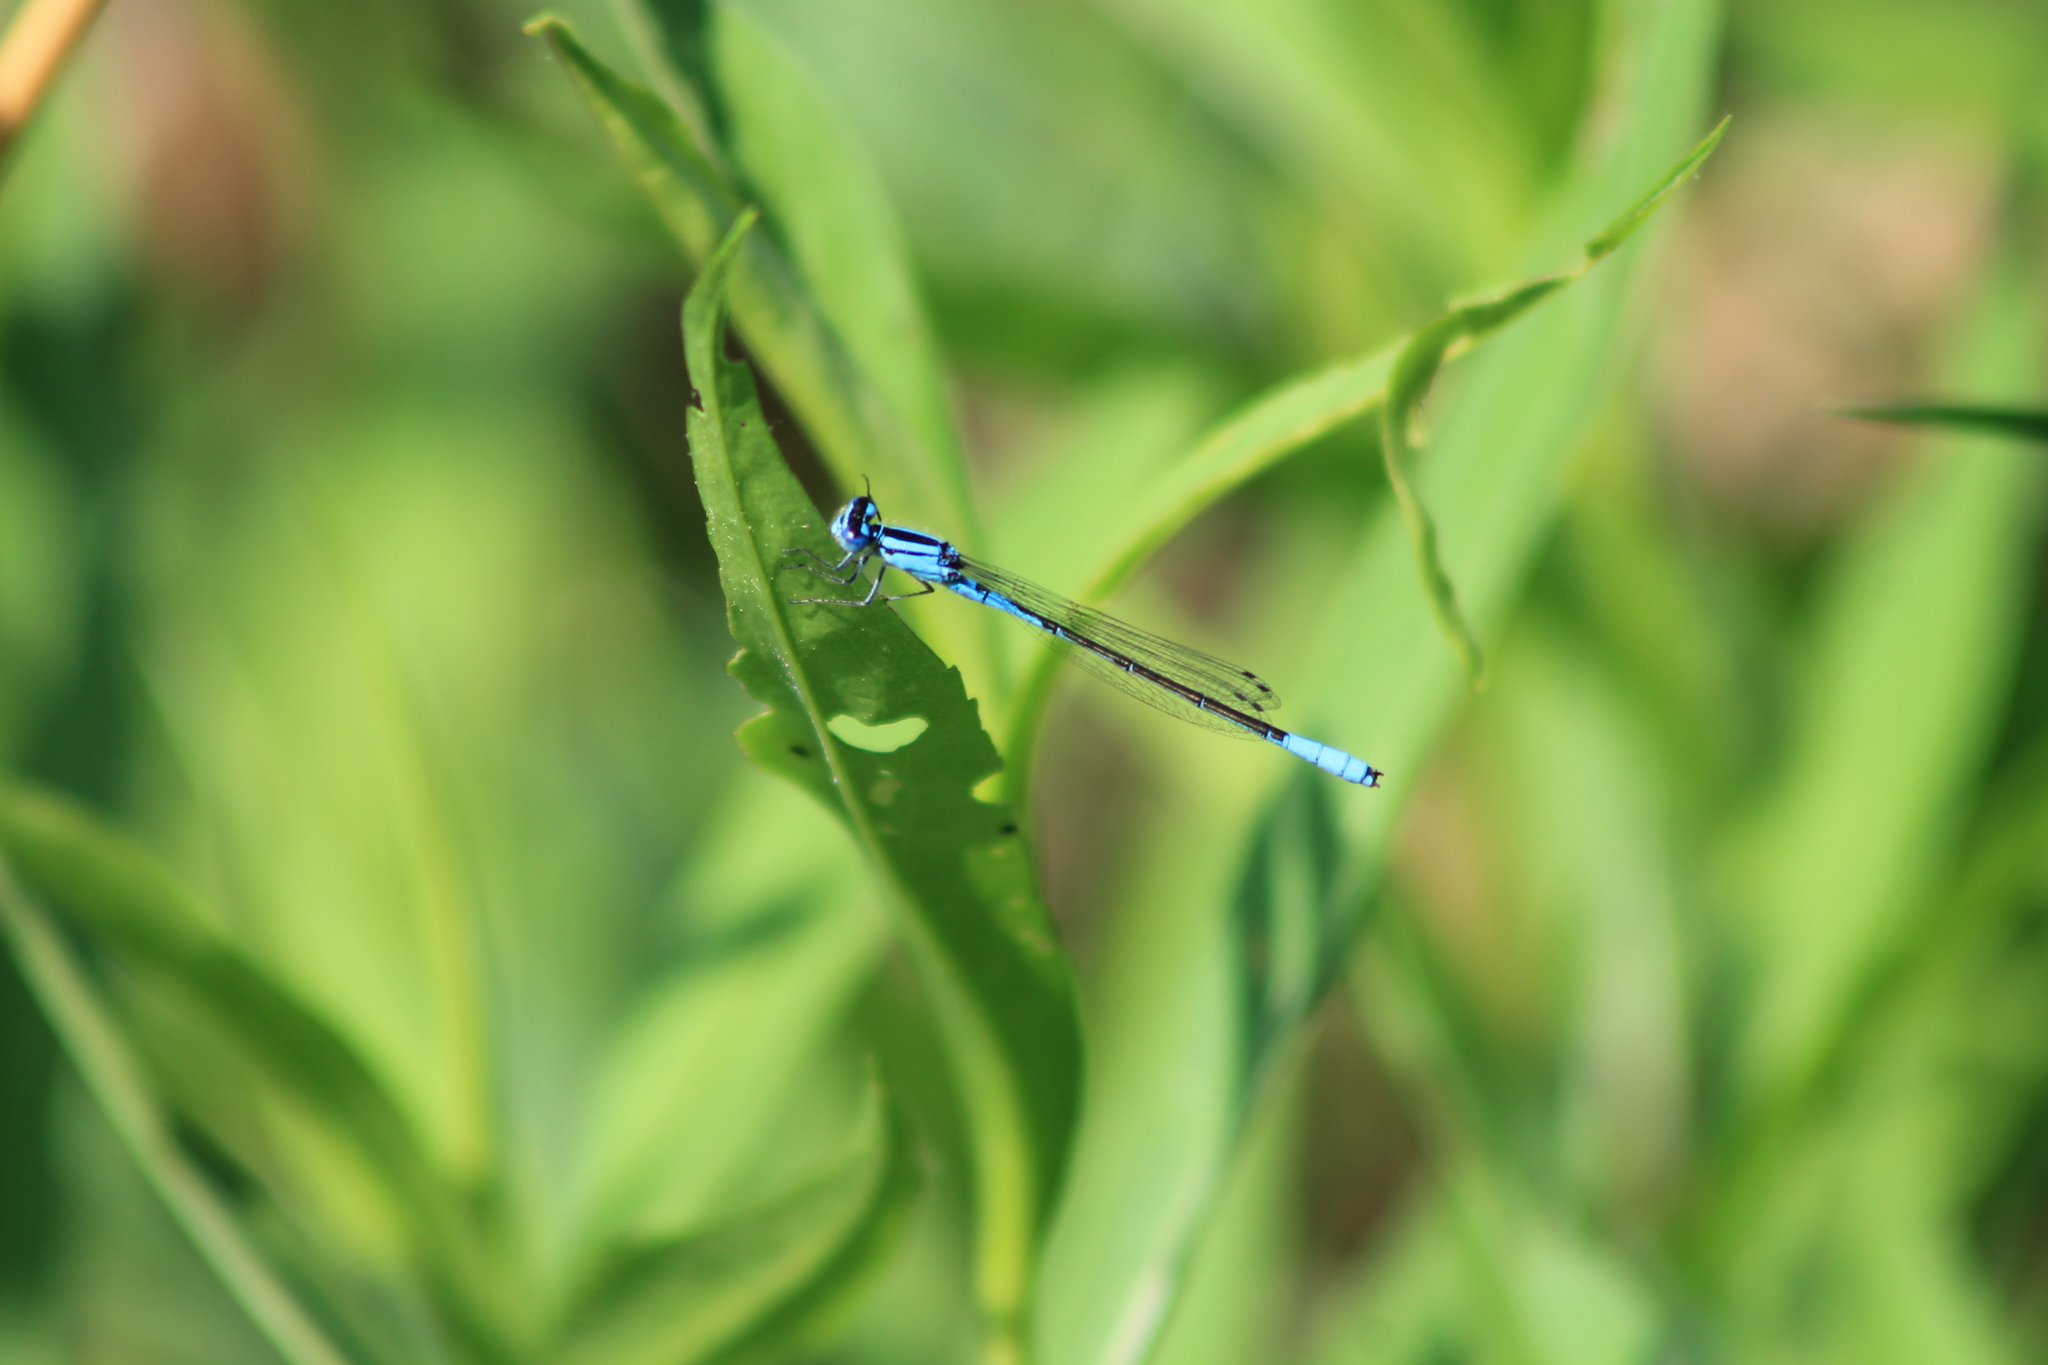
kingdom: Animalia
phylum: Arthropoda
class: Insecta
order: Odonata
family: Coenagrionidae
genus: Enallagma
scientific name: Enallagma aspersum
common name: Azure bluet
